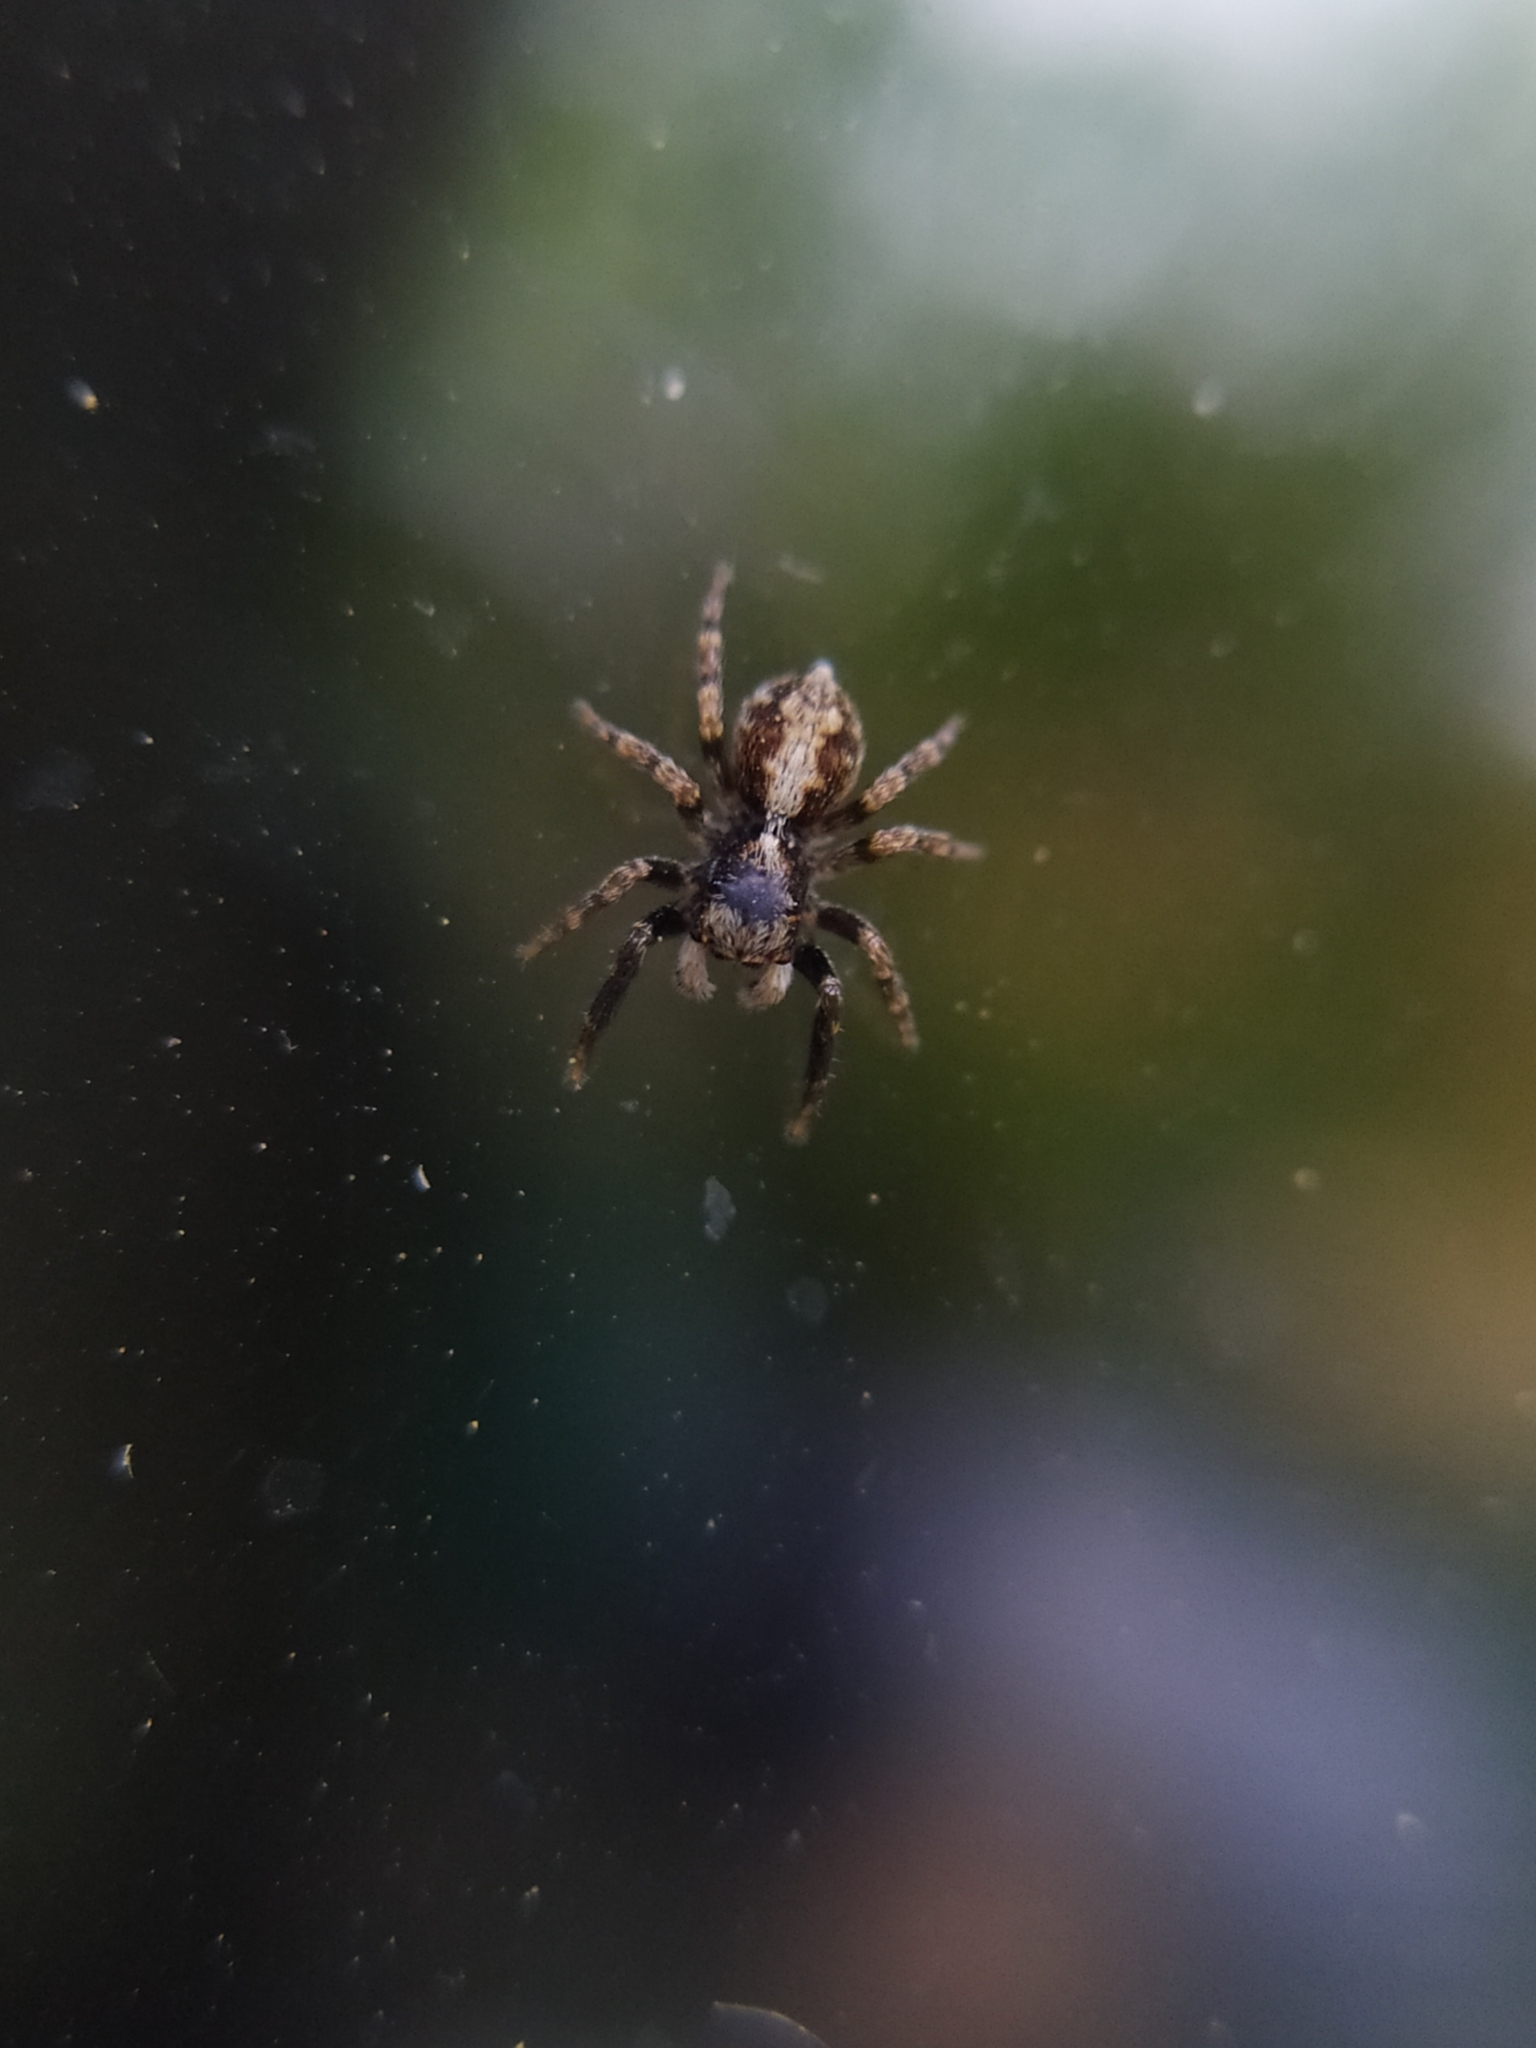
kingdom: Animalia
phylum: Arthropoda
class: Arachnida
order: Araneae
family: Salticidae
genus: Pseudeuophrys
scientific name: Pseudeuophrys lanigera
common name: Jumping spider
